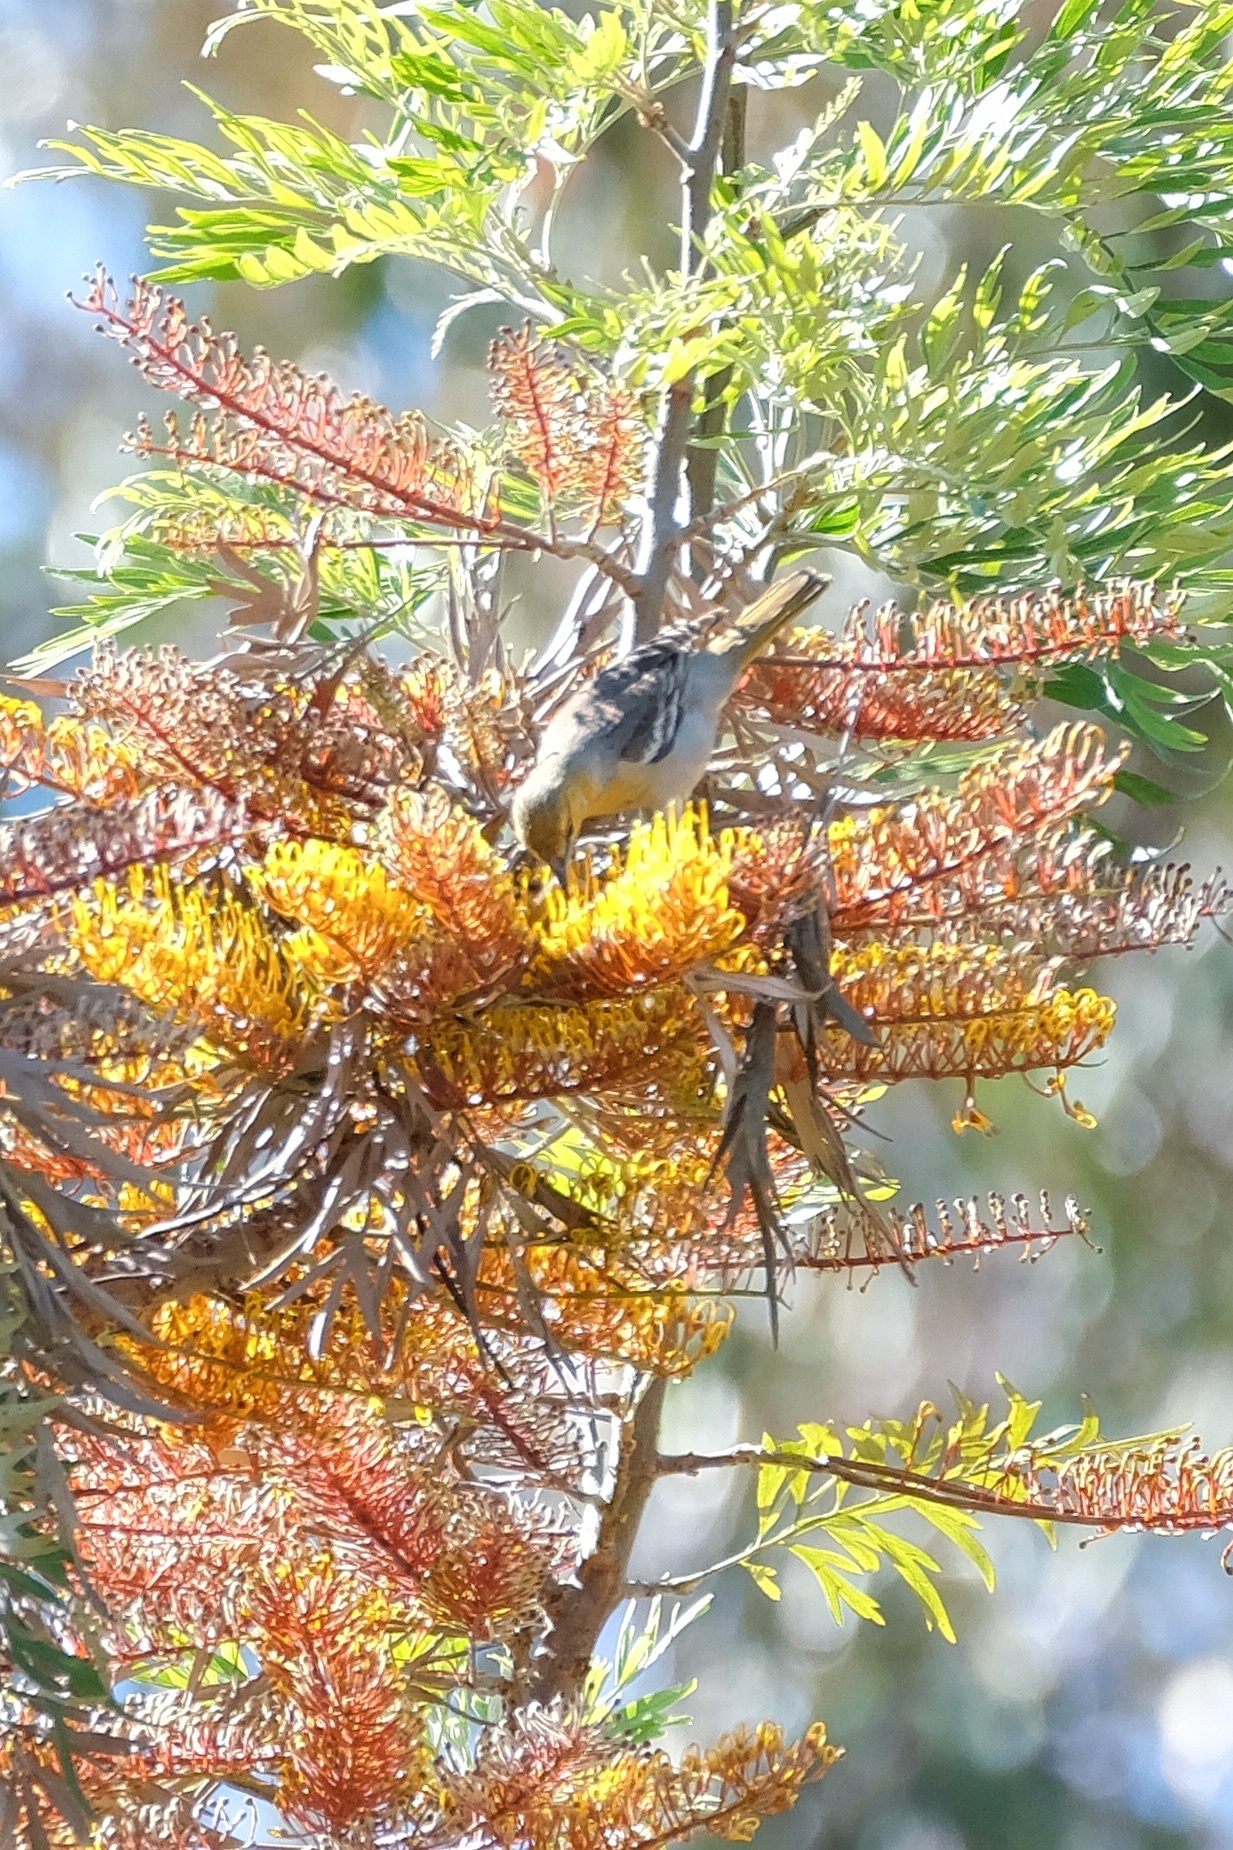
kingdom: Animalia
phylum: Chordata
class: Aves
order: Passeriformes
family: Icteridae
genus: Icterus
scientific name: Icterus bullockii
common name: Bullock's oriole
